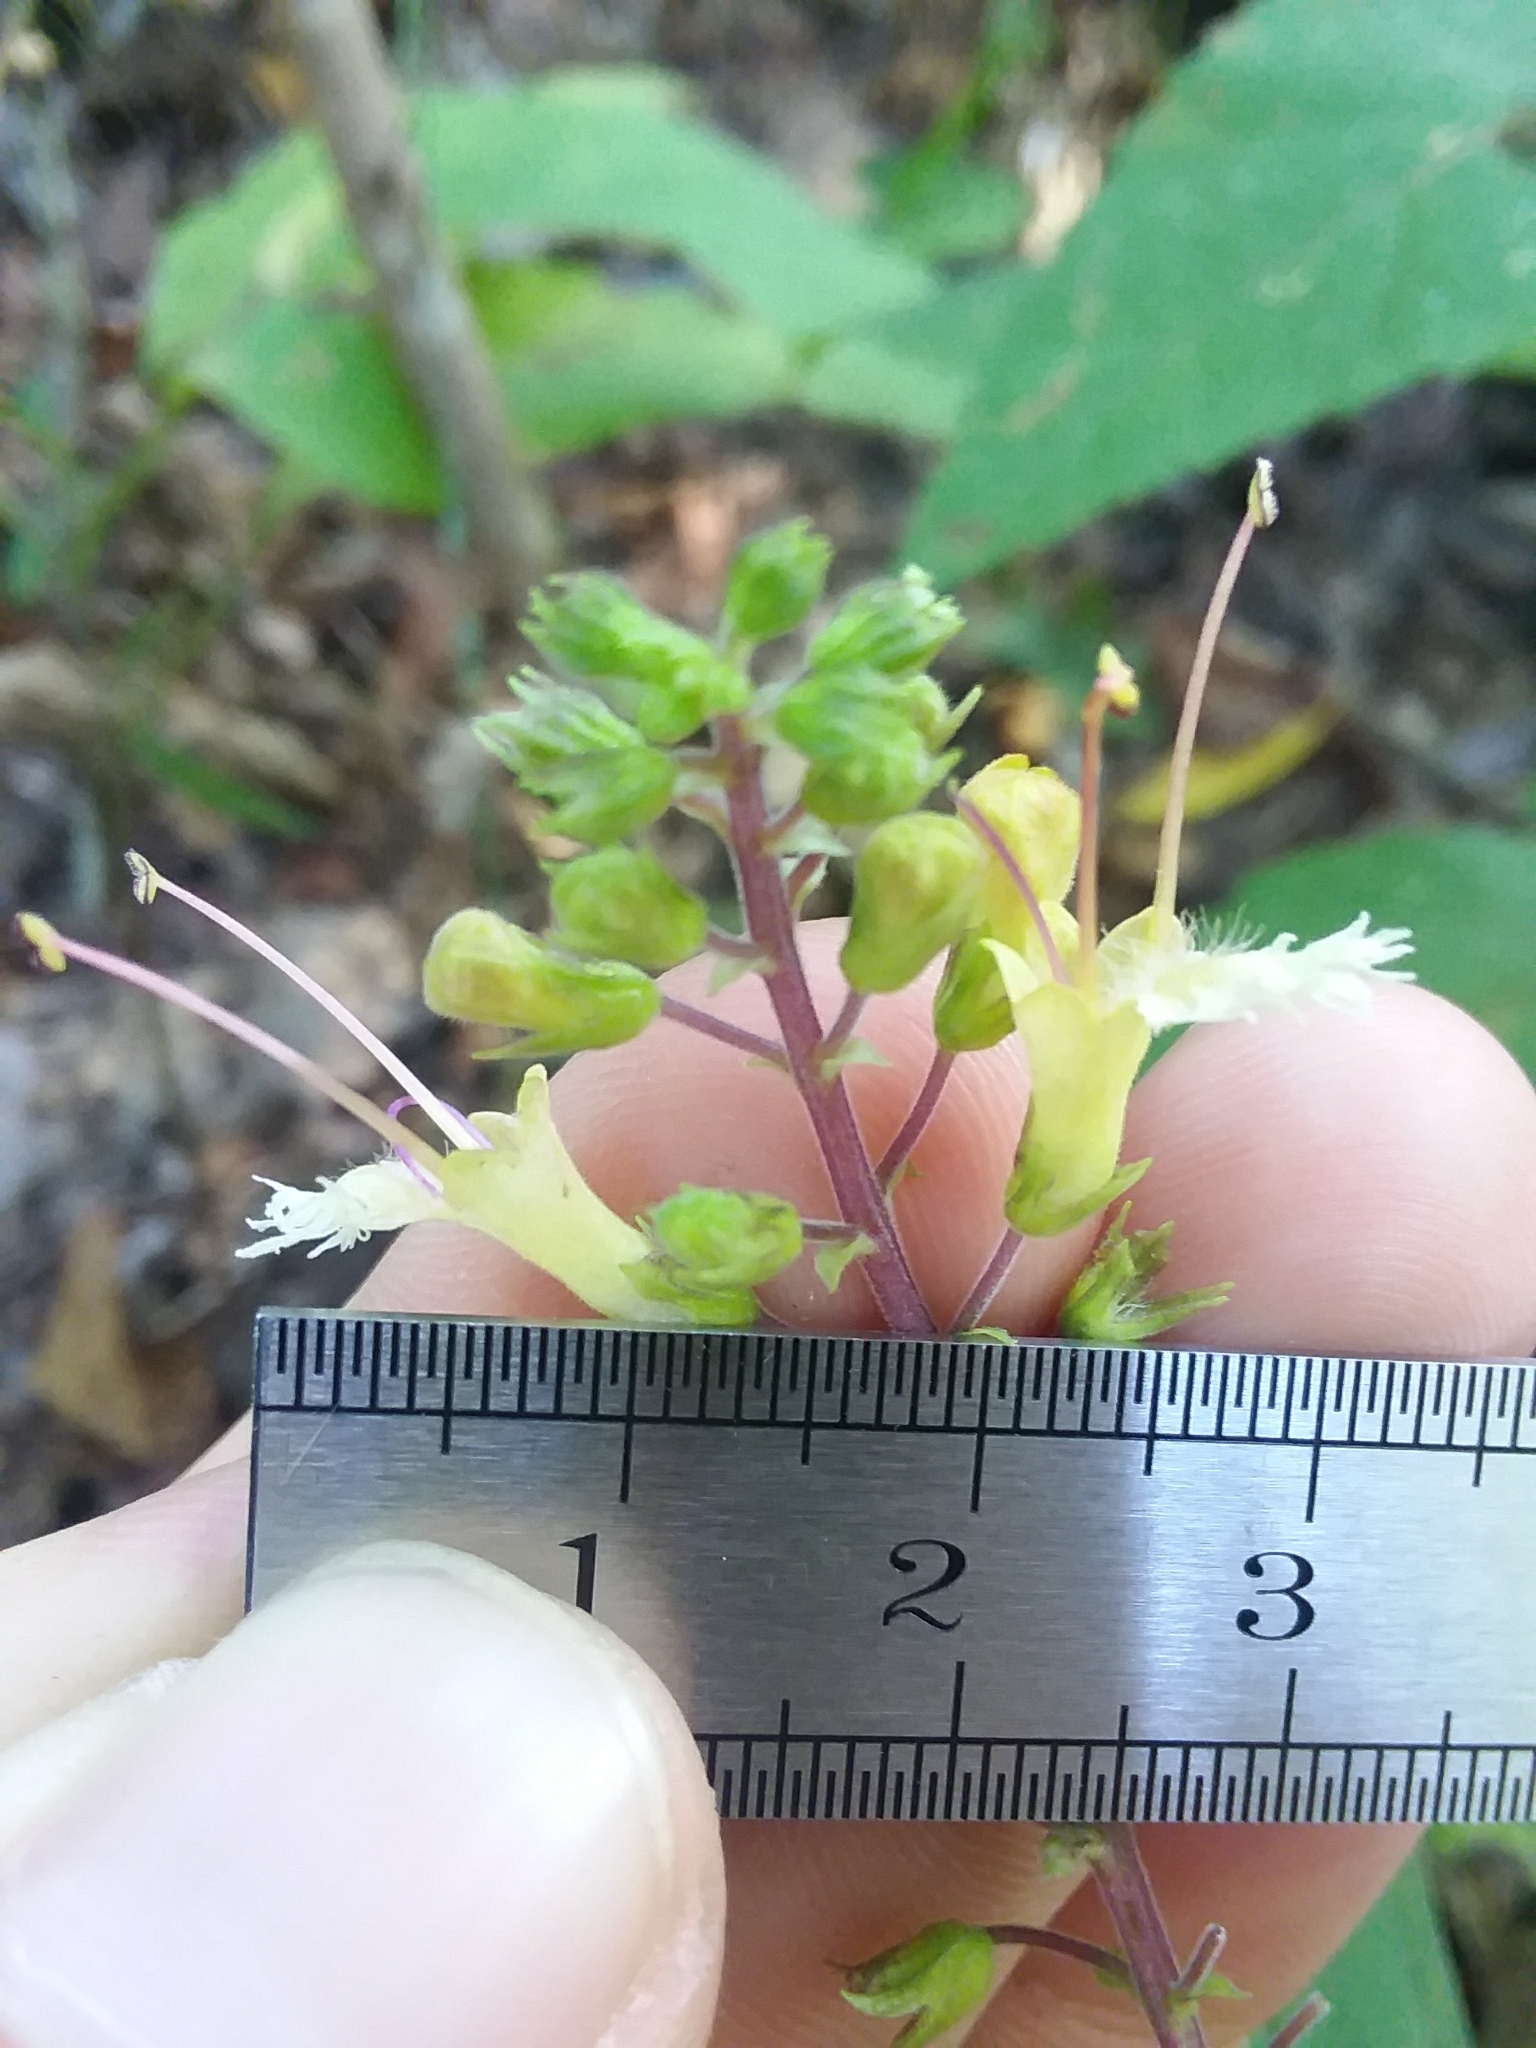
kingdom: Plantae
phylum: Tracheophyta
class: Magnoliopsida
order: Lamiales
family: Lamiaceae
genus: Collinsonia
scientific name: Collinsonia punctata
